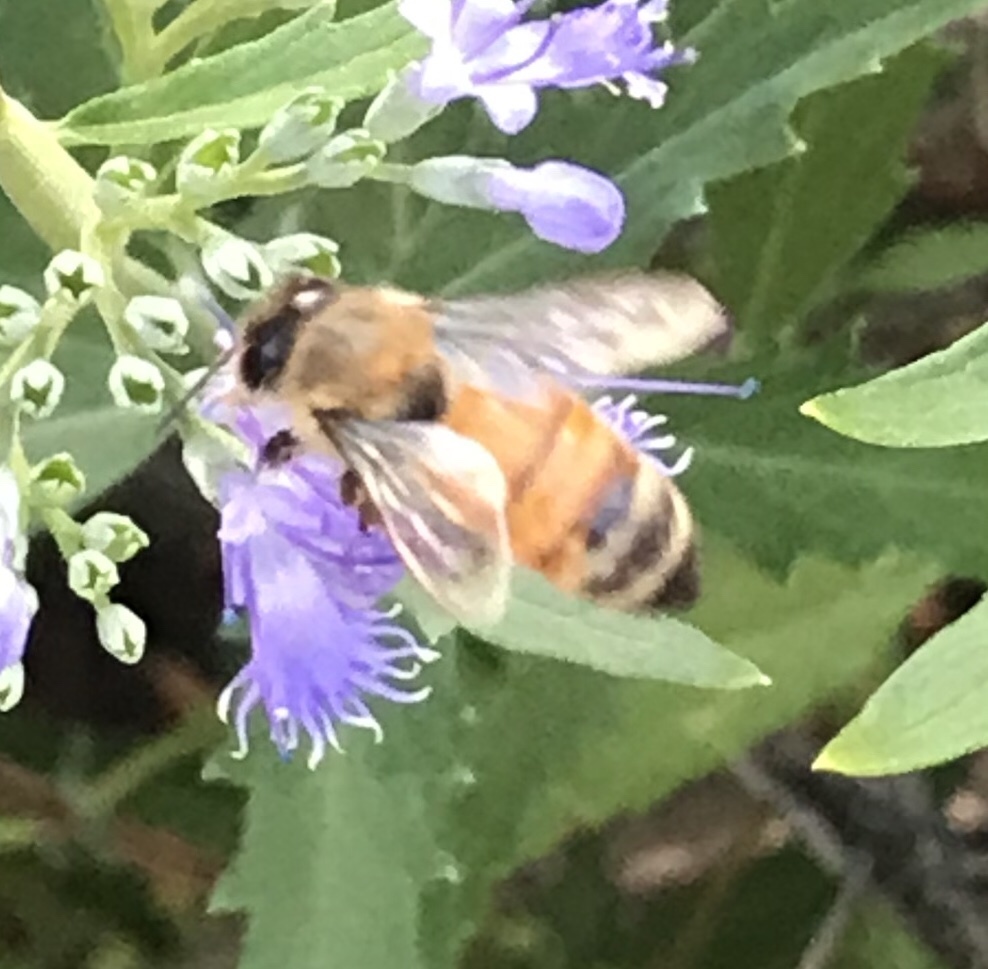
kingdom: Animalia
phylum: Arthropoda
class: Insecta
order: Hymenoptera
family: Apidae
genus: Apis
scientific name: Apis mellifera
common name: Honey bee
